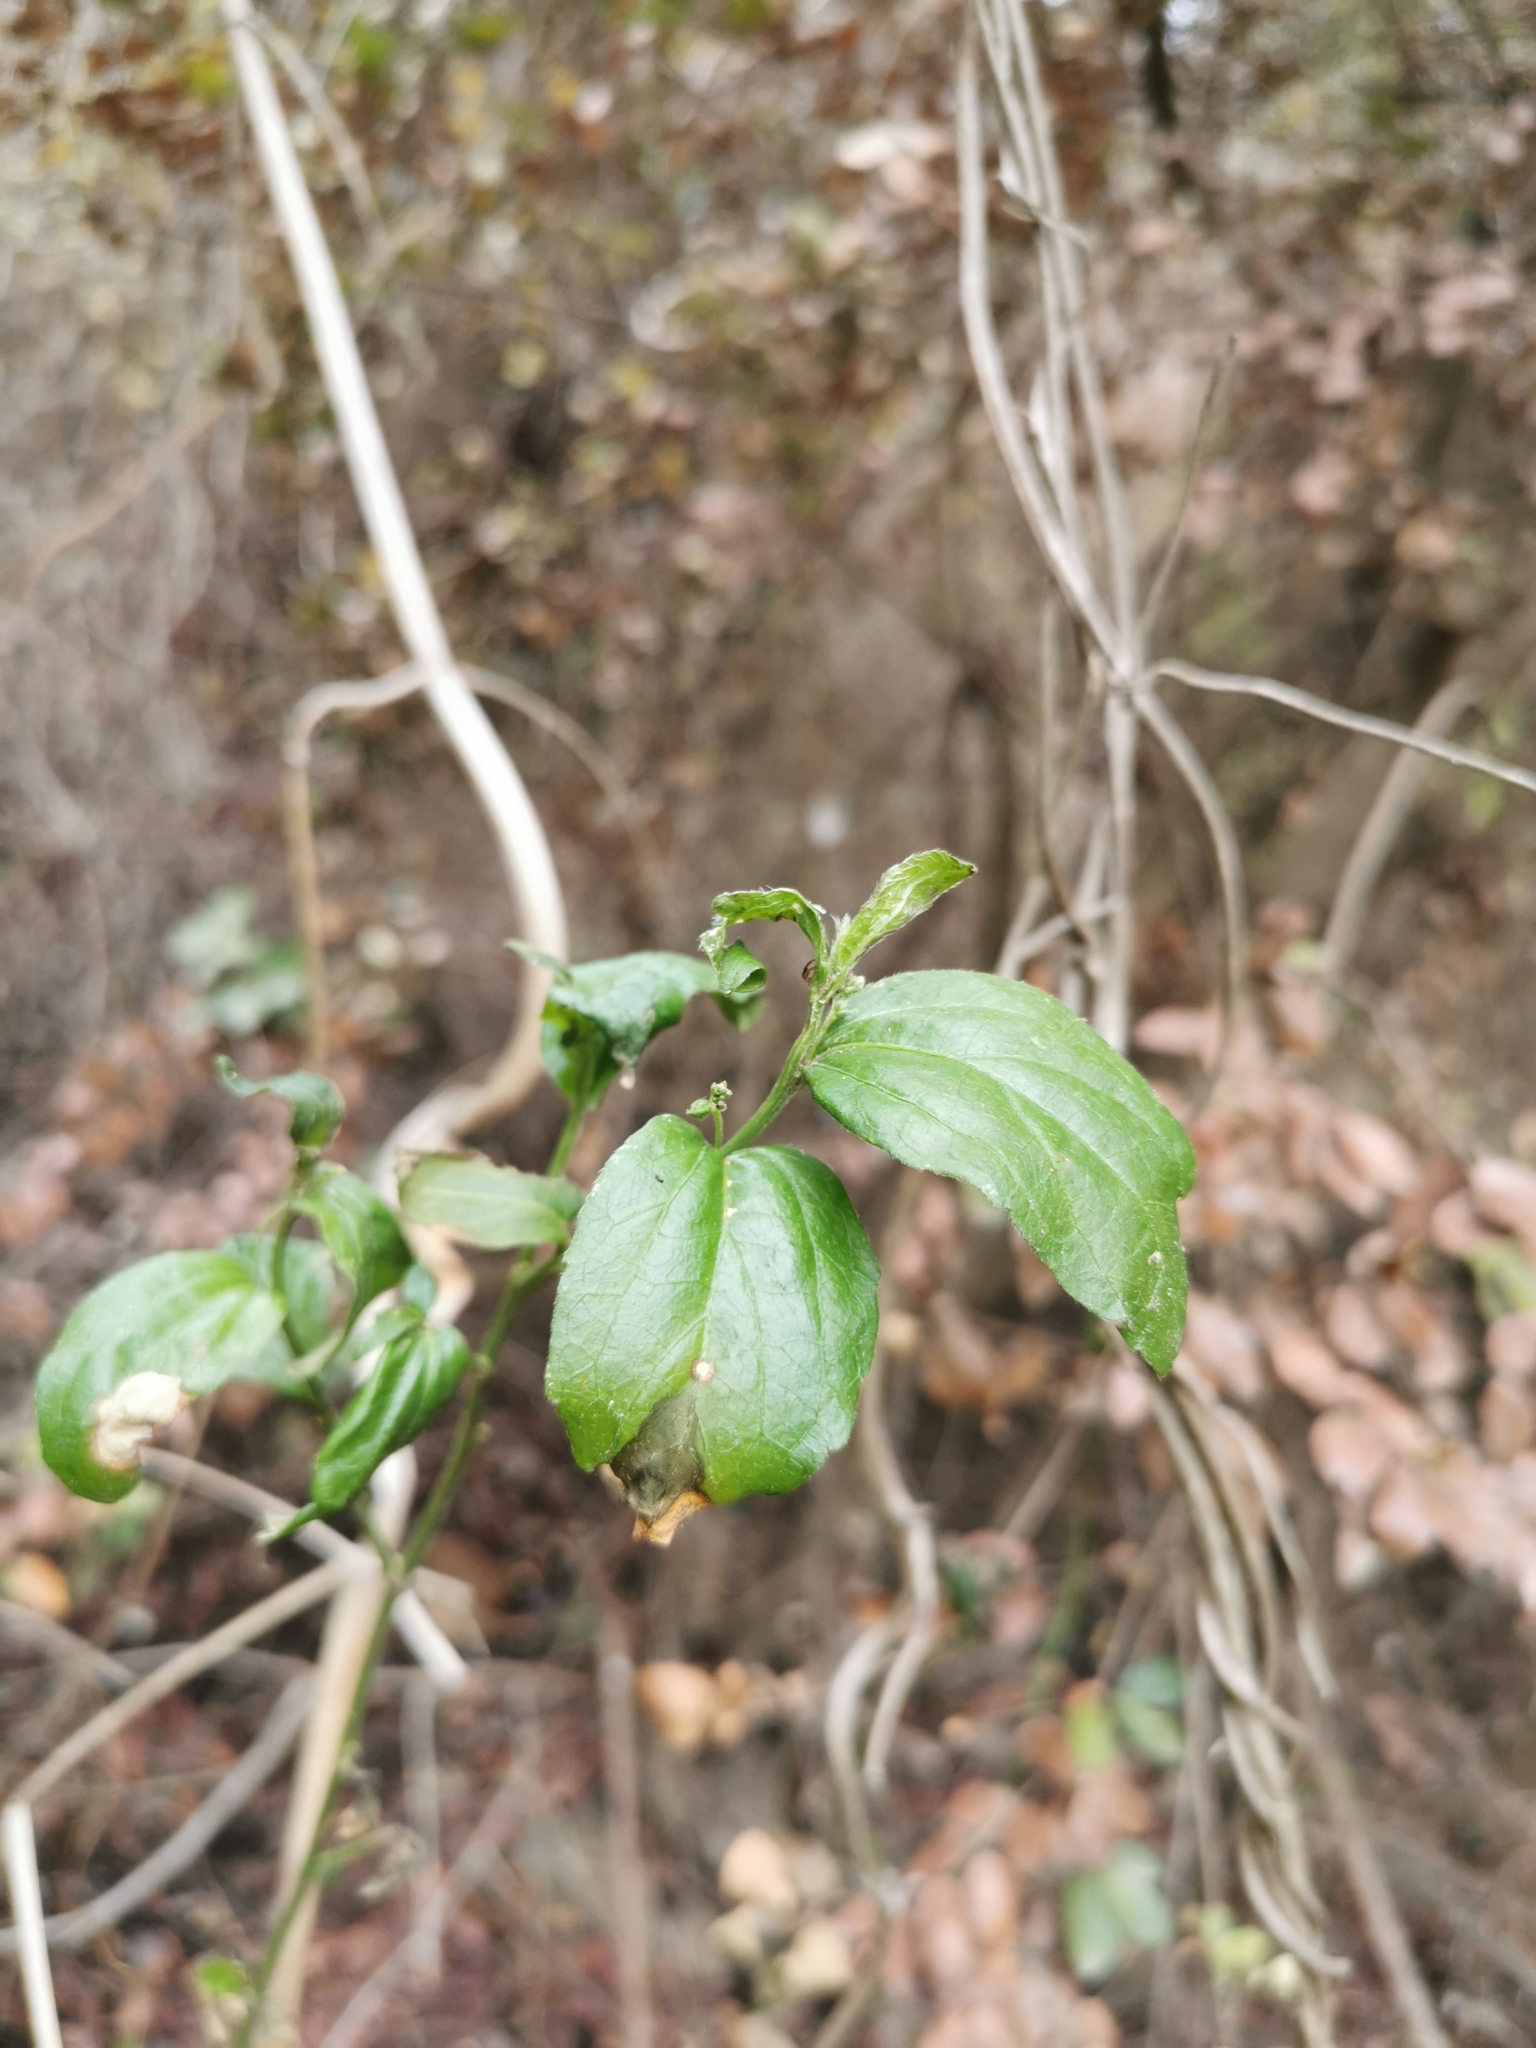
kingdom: Plantae
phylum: Tracheophyta
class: Magnoliopsida
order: Malpighiales
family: Euphorbiaceae
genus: Chiropetalum
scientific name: Chiropetalum tricuspidatum
